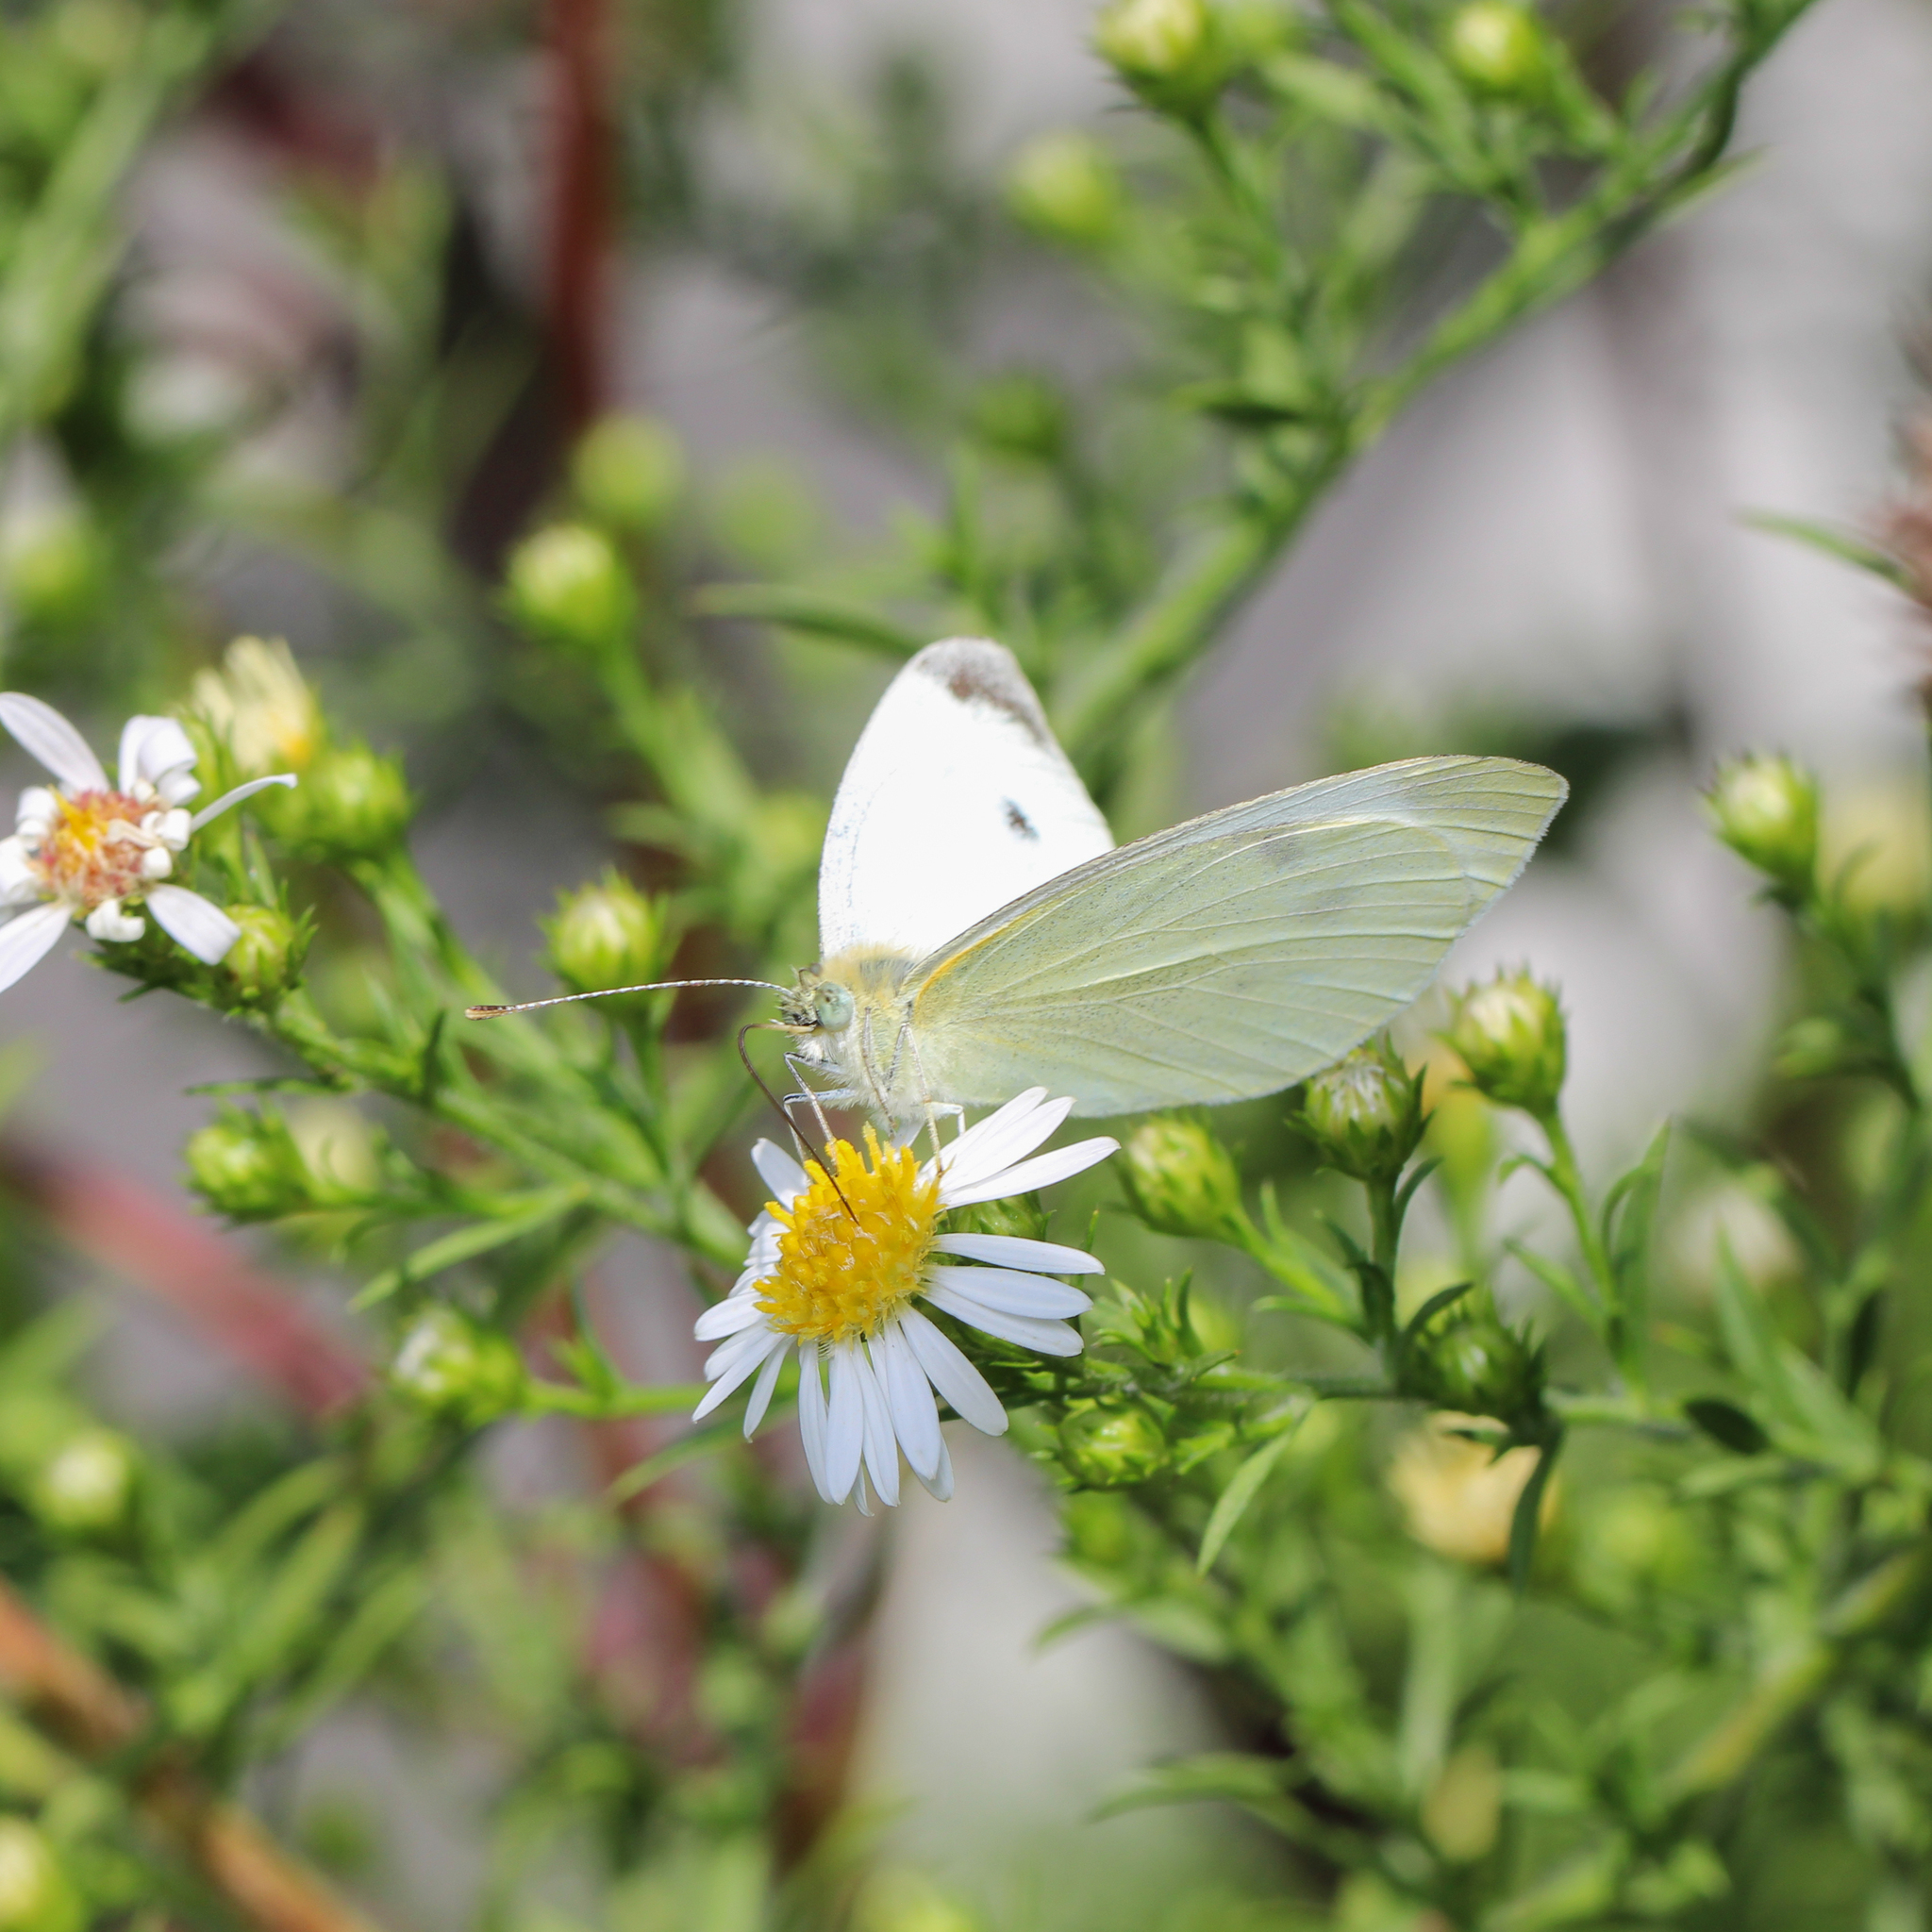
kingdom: Animalia
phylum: Arthropoda
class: Insecta
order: Lepidoptera
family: Pieridae
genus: Pieris
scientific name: Pieris rapae
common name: Small white
